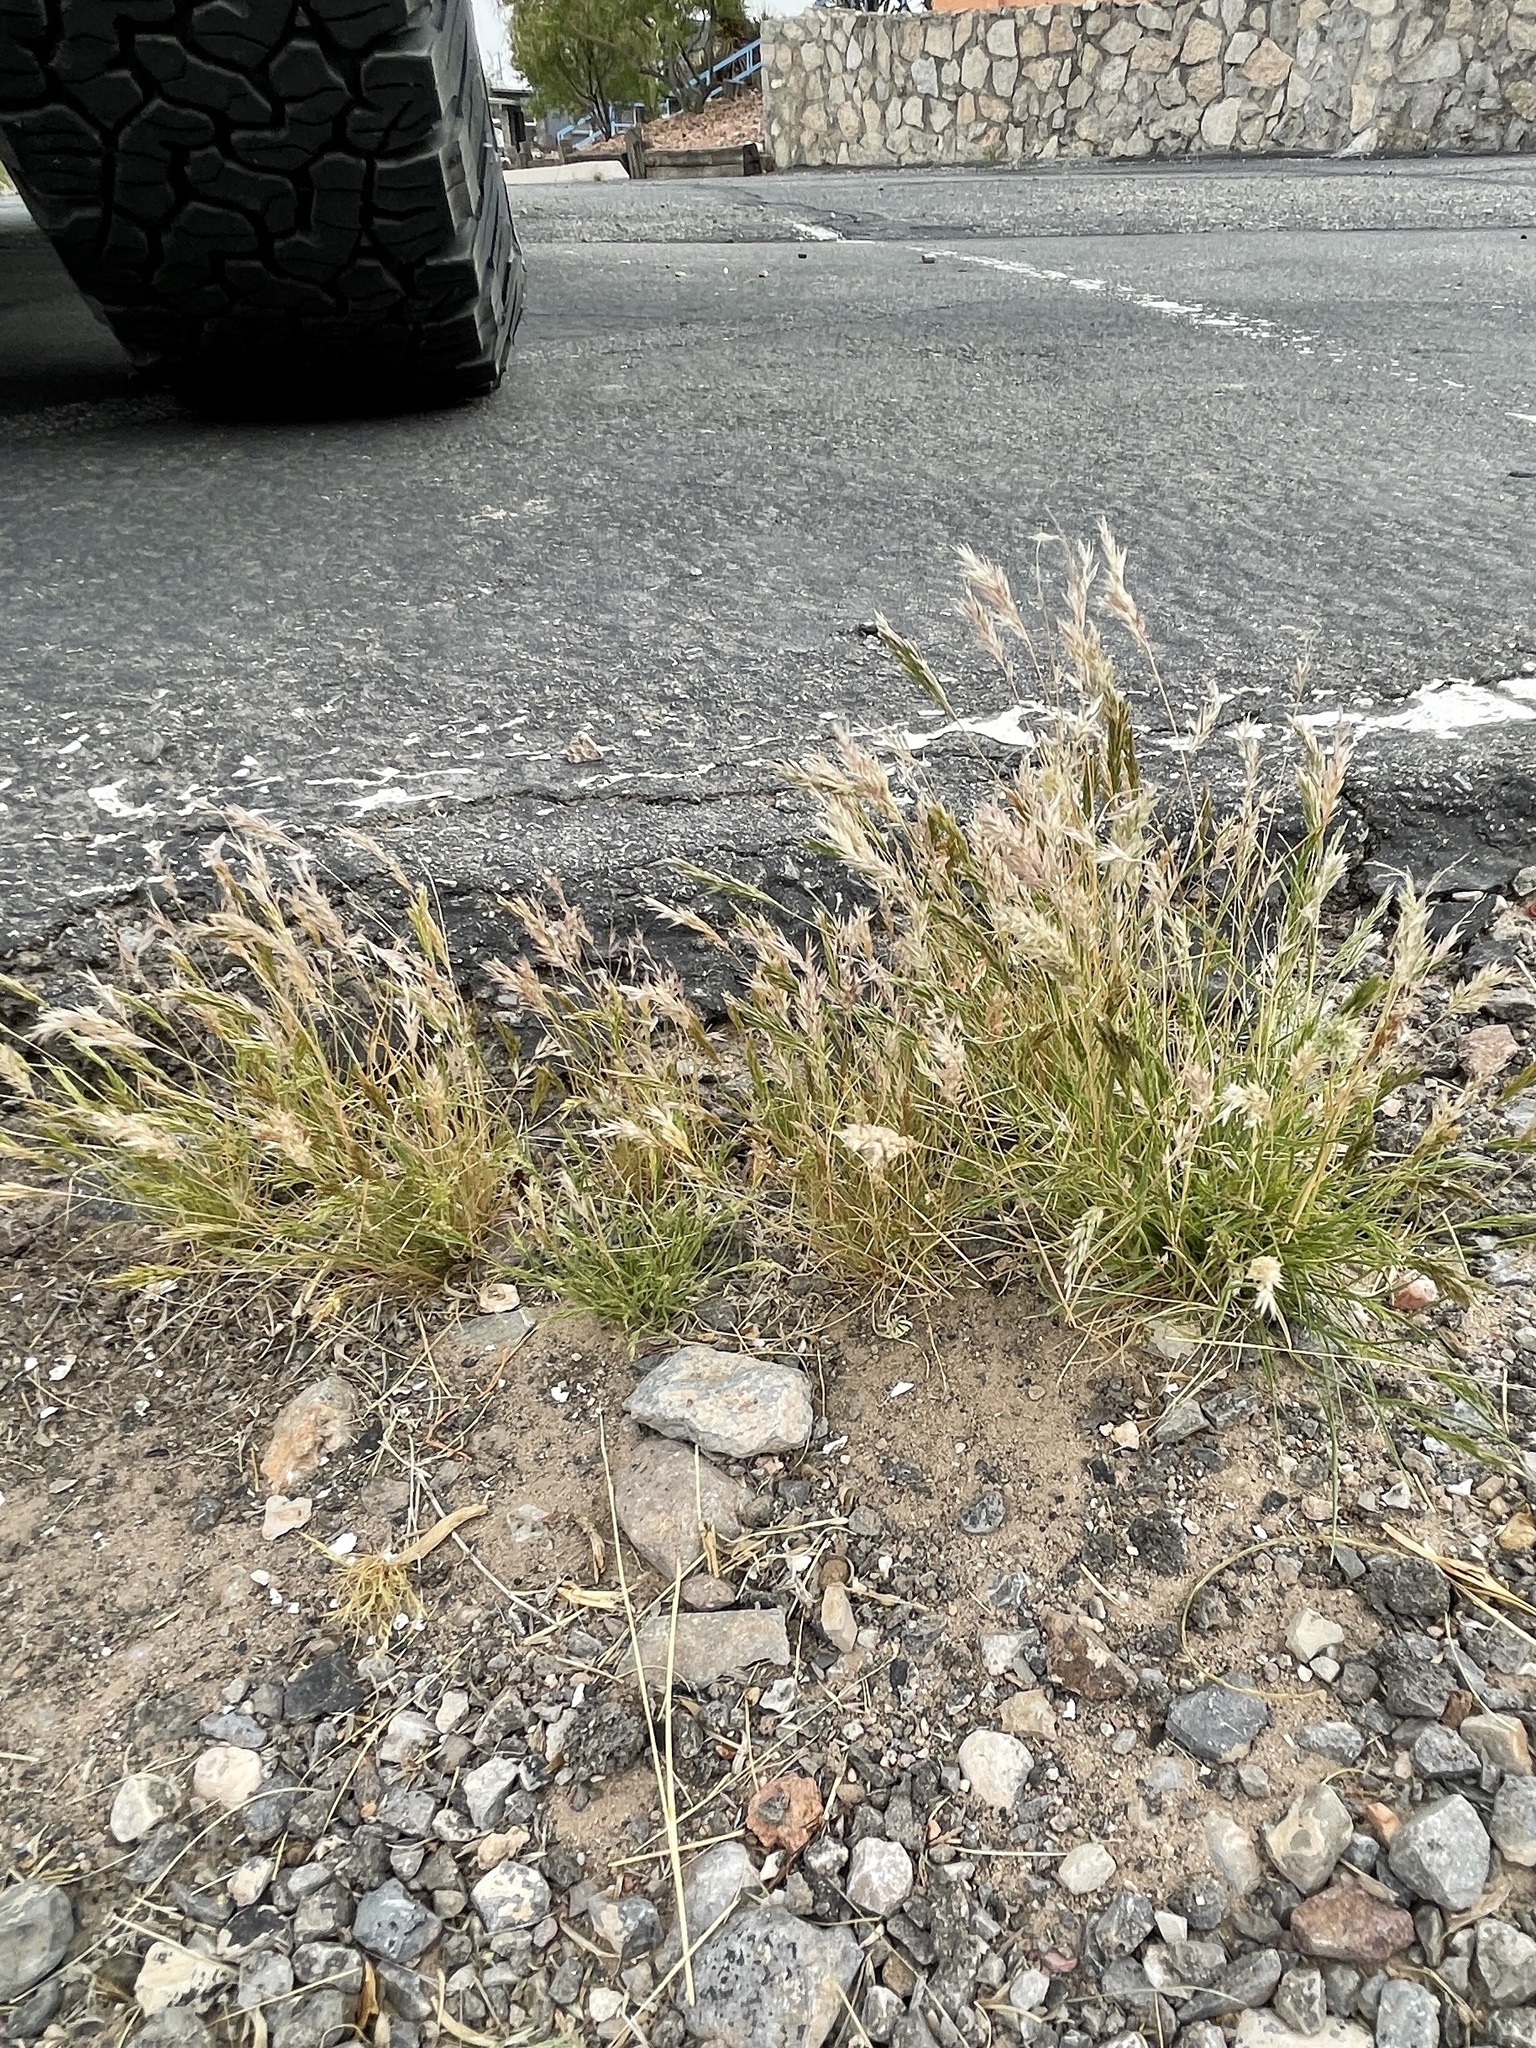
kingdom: Plantae
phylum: Tracheophyta
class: Liliopsida
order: Poales
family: Poaceae
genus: Schismus
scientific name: Schismus barbatus
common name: Kelch-grass
